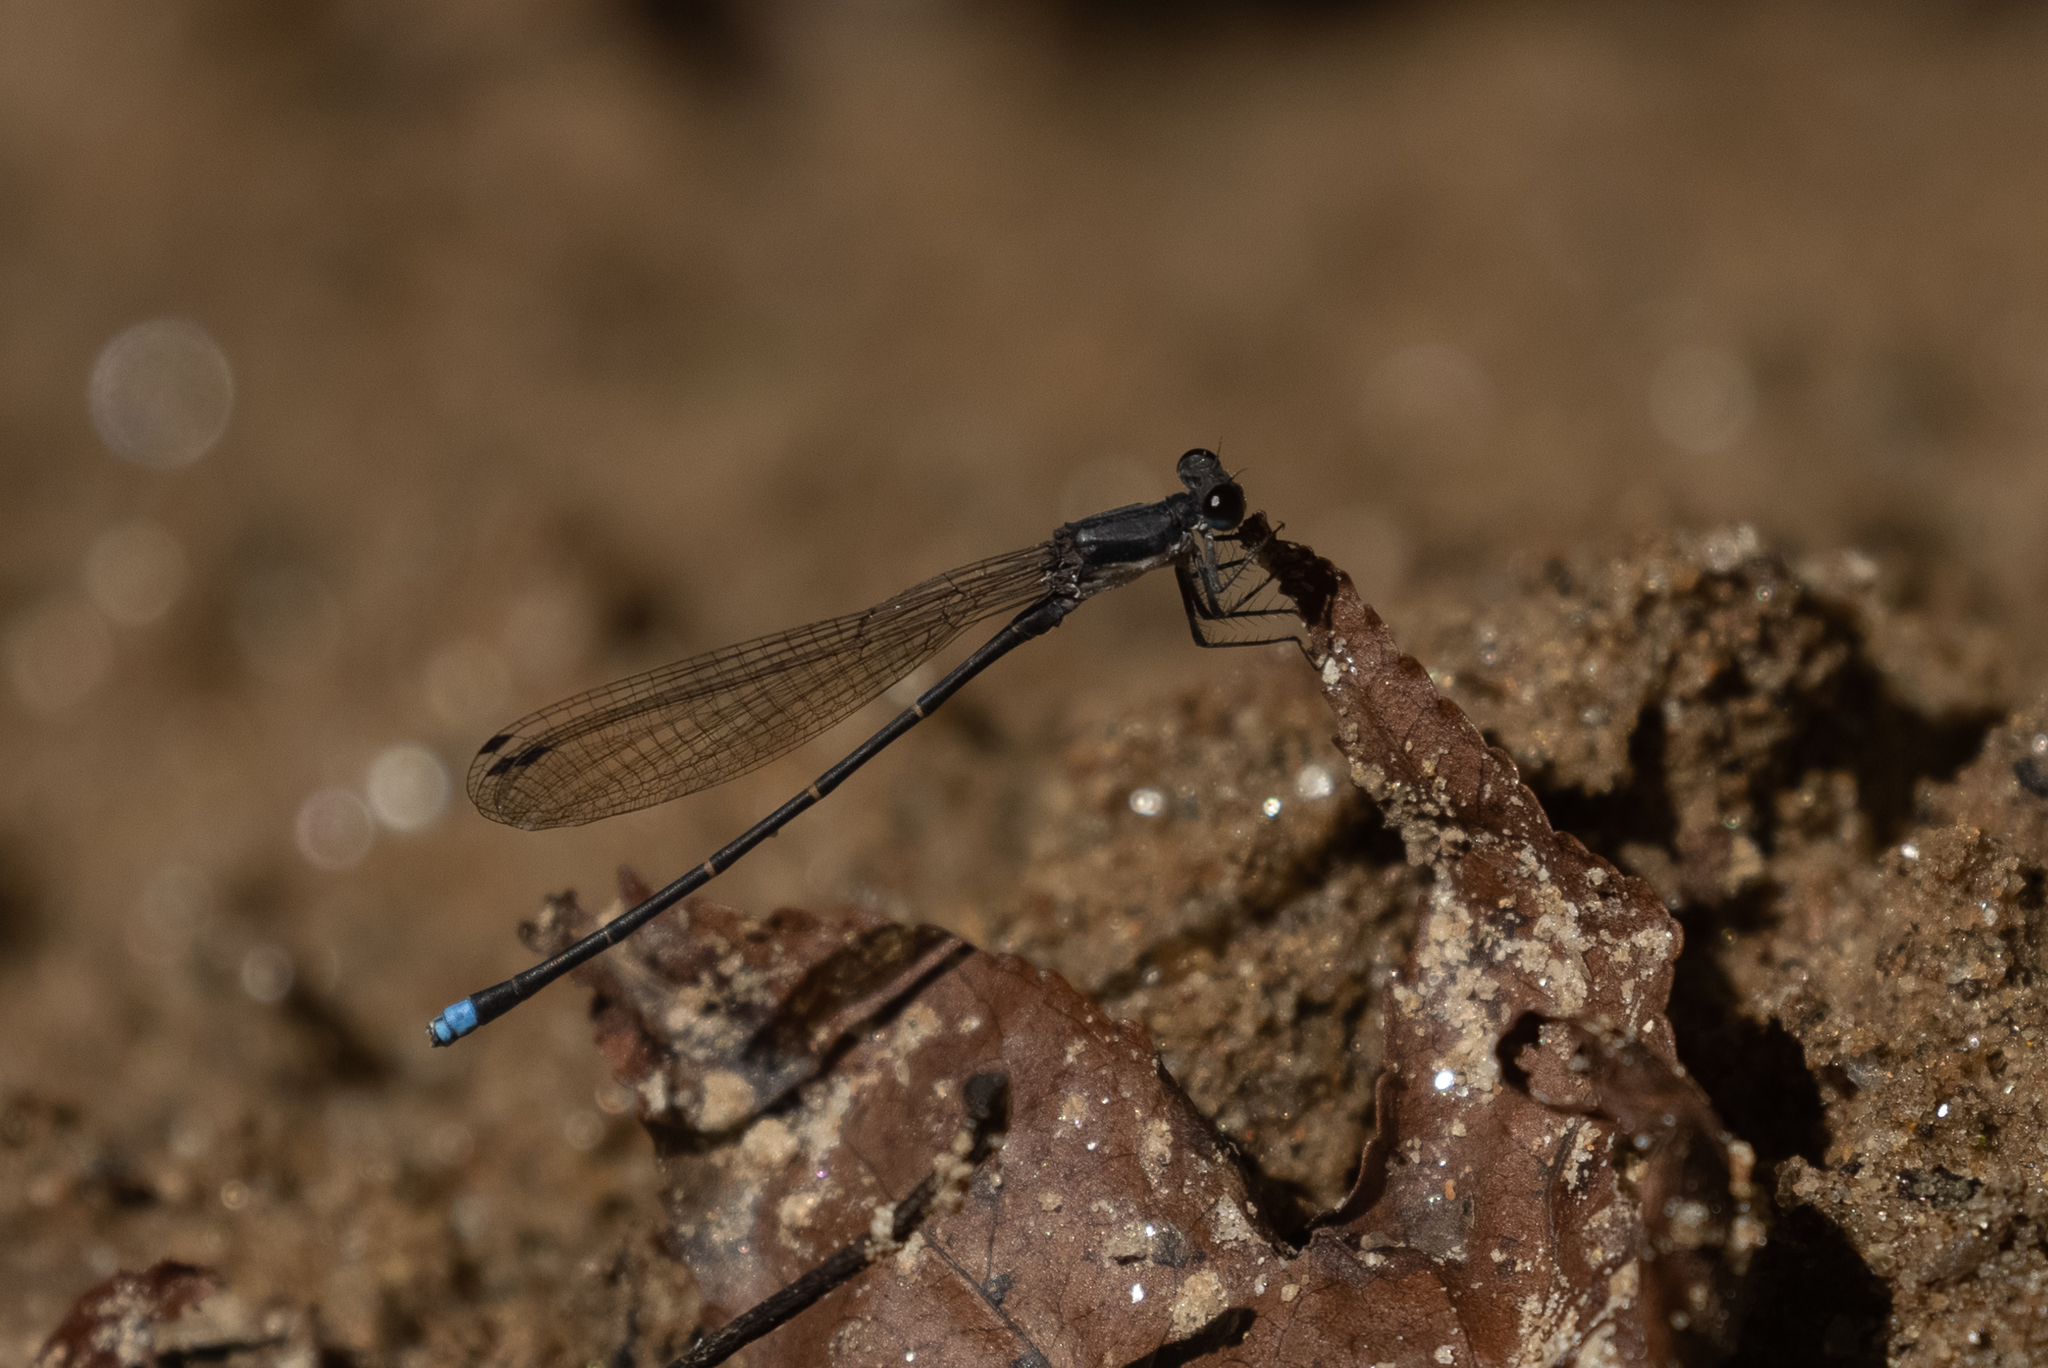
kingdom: Animalia
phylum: Arthropoda
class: Insecta
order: Odonata
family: Coenagrionidae
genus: Argia
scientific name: Argia tibialis
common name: Blue-tipped dancer
